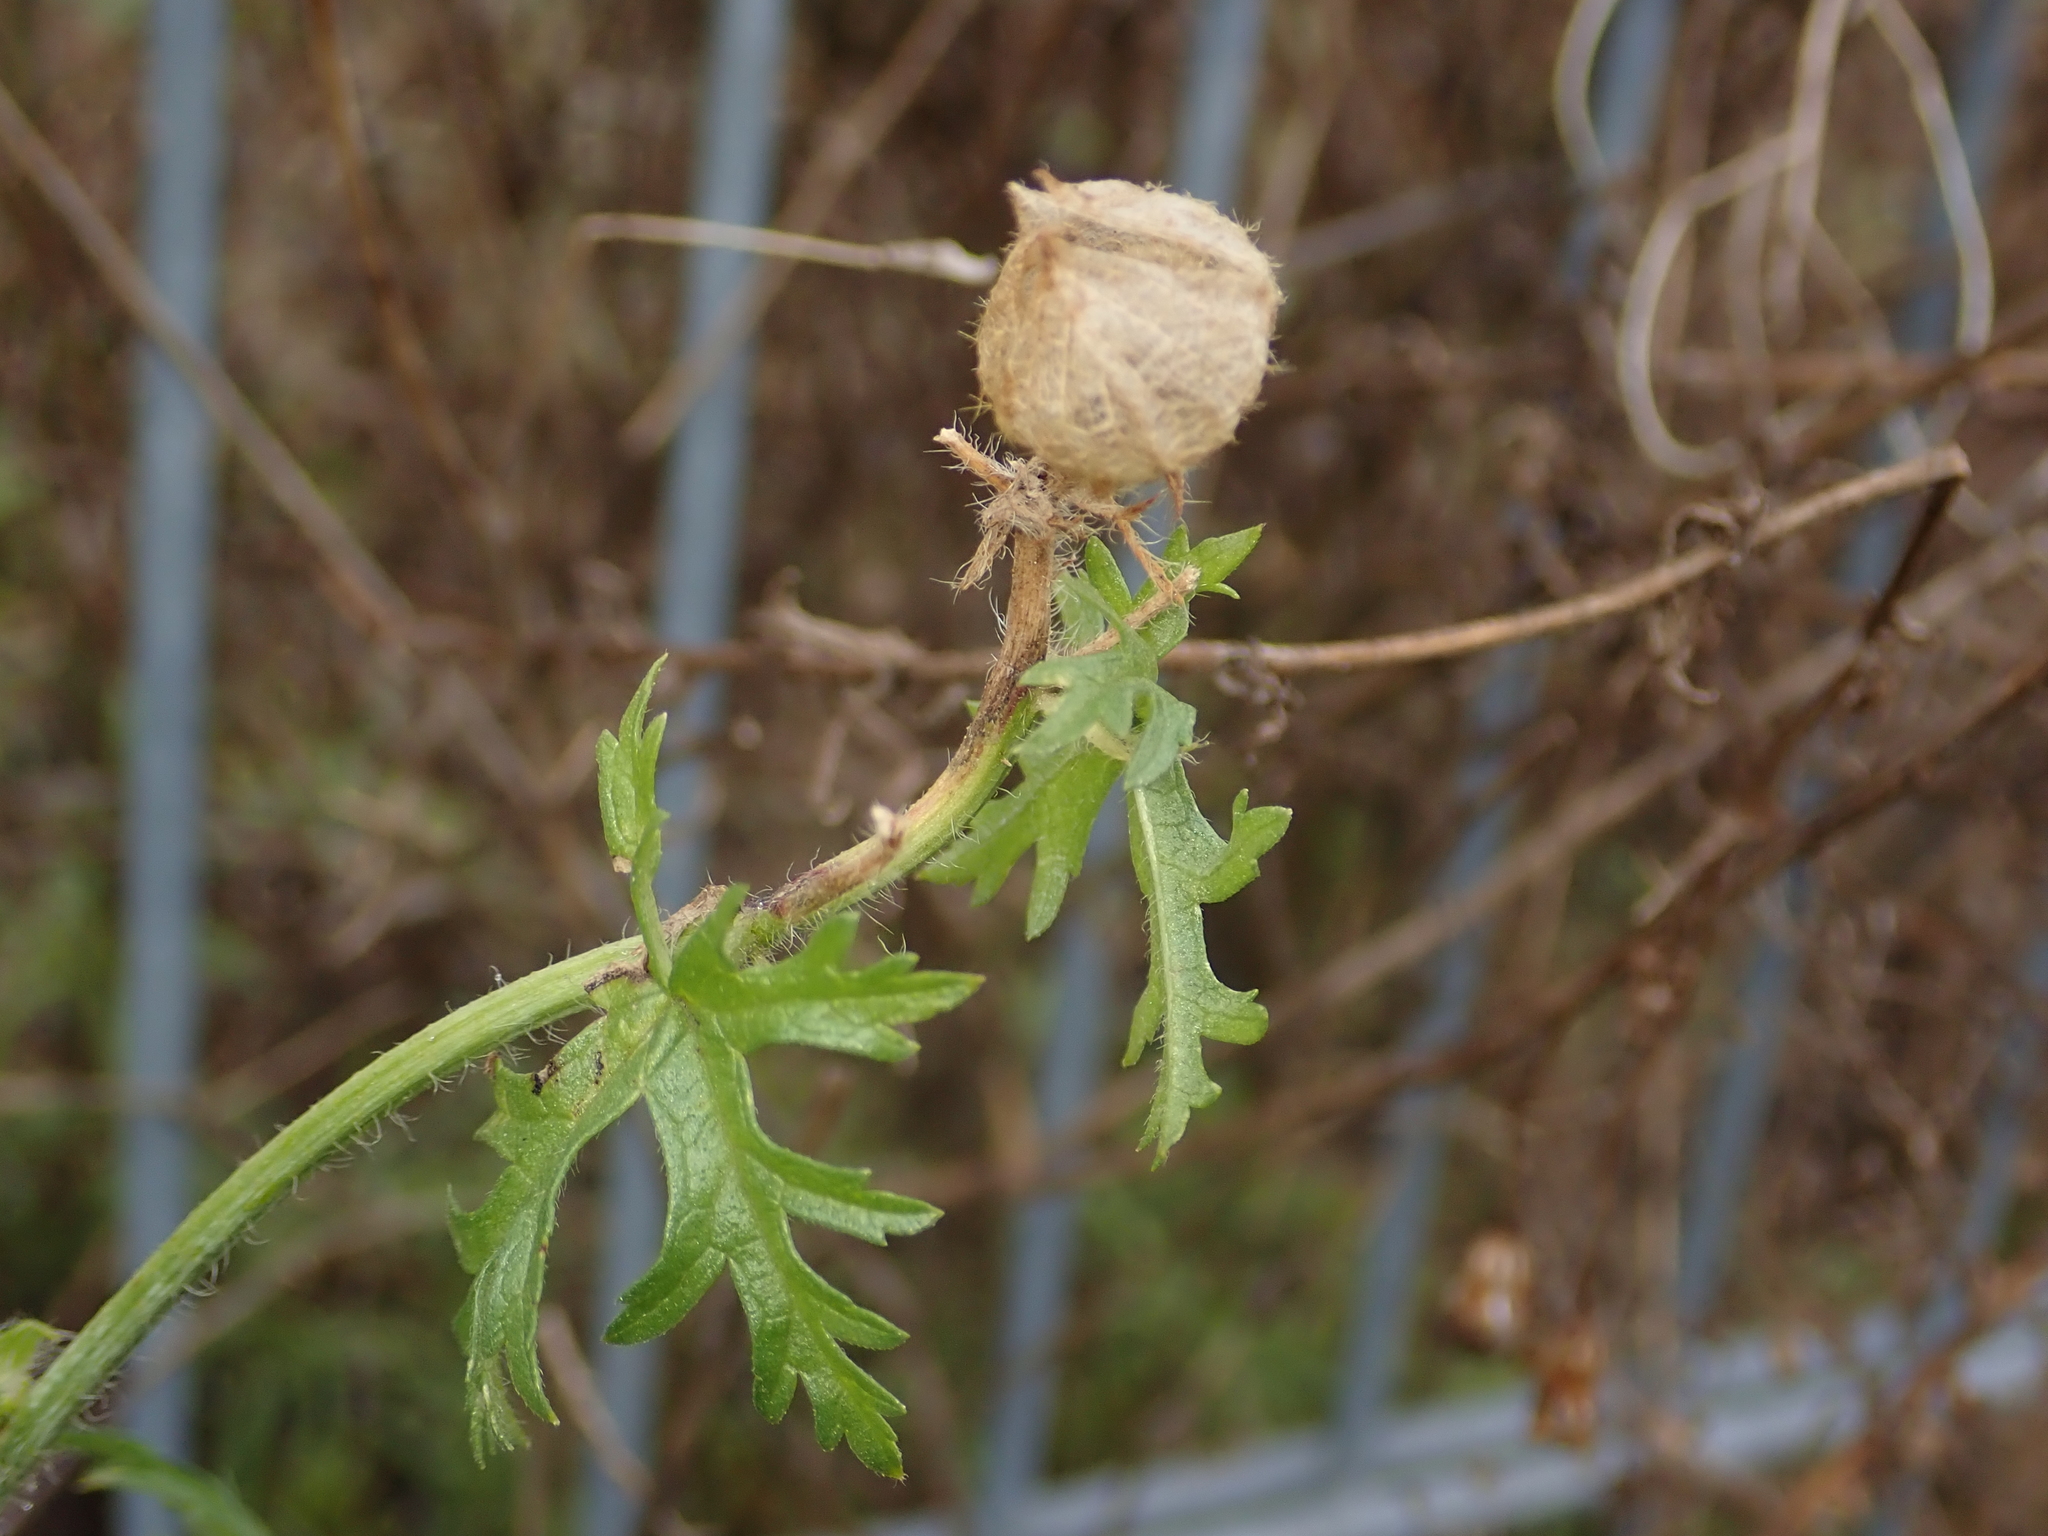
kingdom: Plantae
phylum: Tracheophyta
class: Magnoliopsida
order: Malvales
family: Malvaceae
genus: Malva
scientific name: Malva moschata
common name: Musk mallow
